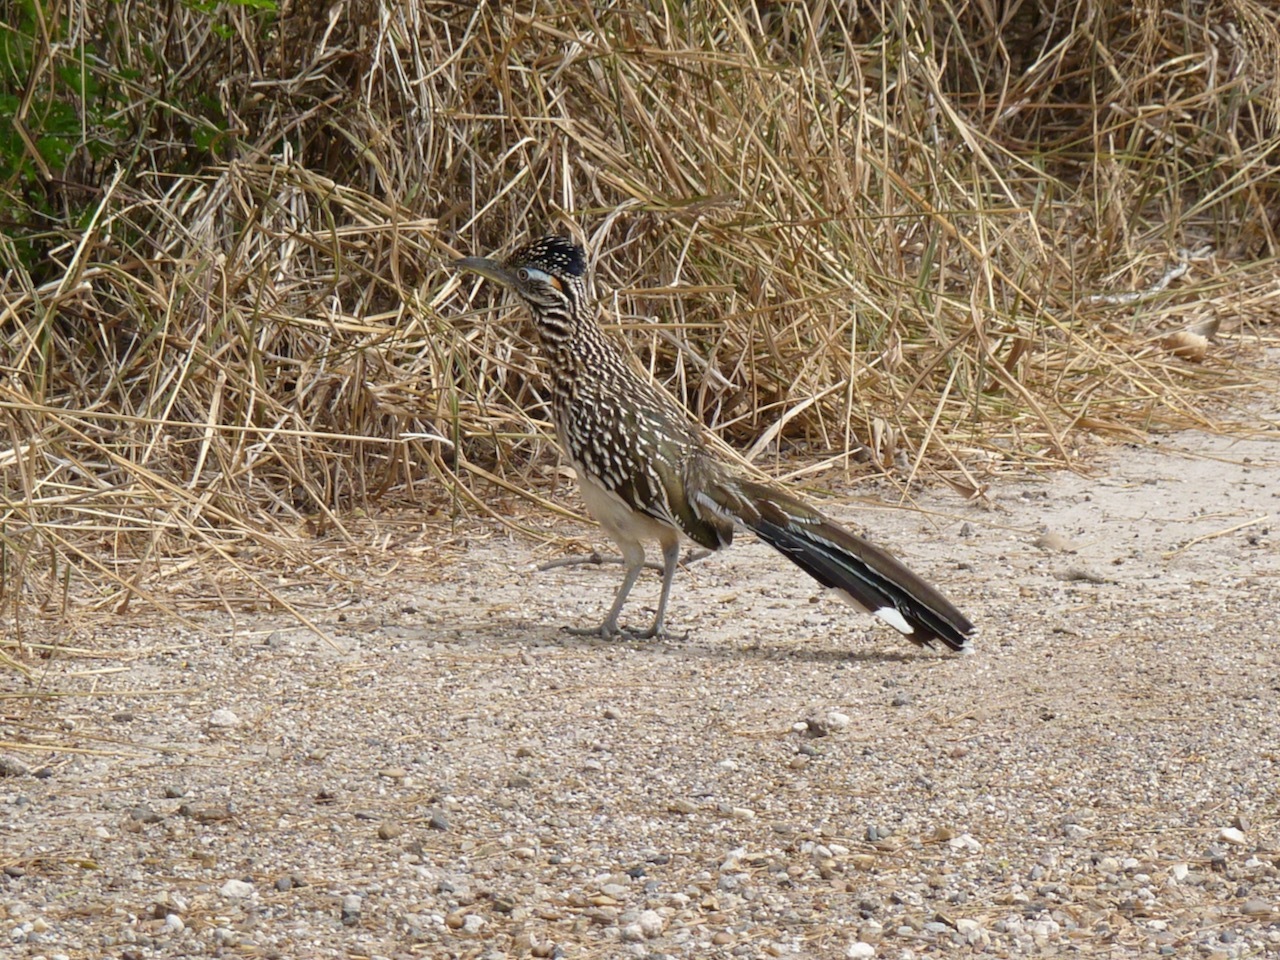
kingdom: Animalia
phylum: Chordata
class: Aves
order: Cuculiformes
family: Cuculidae
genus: Geococcyx
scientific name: Geococcyx californianus
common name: Greater roadrunner
